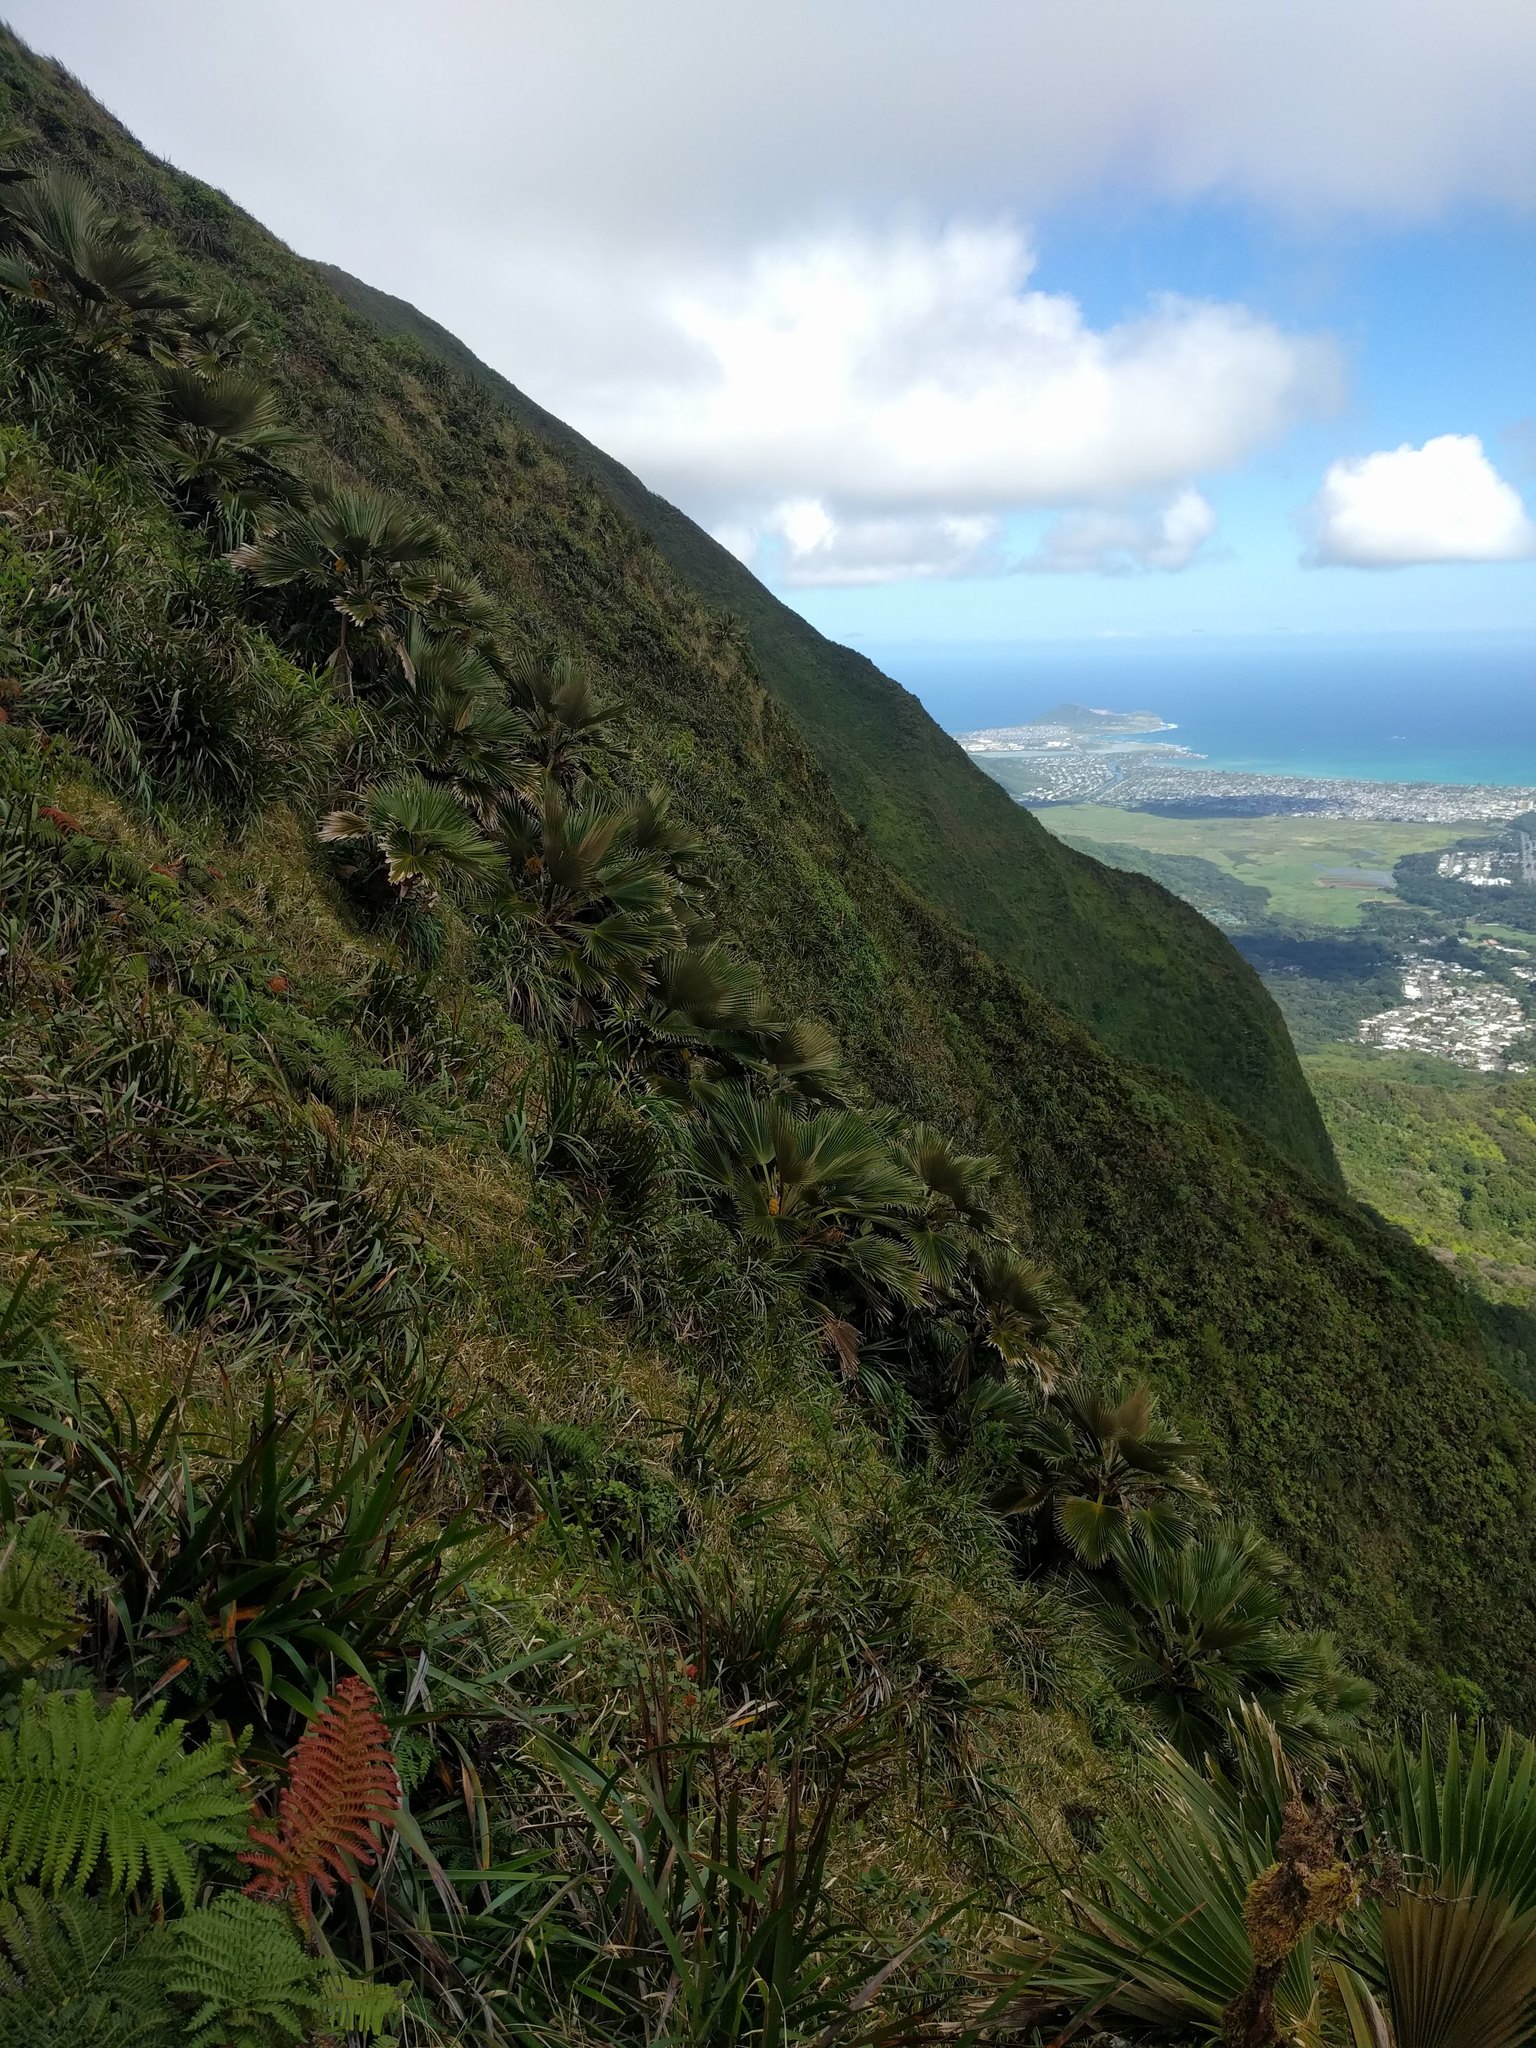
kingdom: Plantae
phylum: Tracheophyta
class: Liliopsida
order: Arecales
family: Arecaceae
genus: Pritchardia
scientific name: Pritchardia martii
